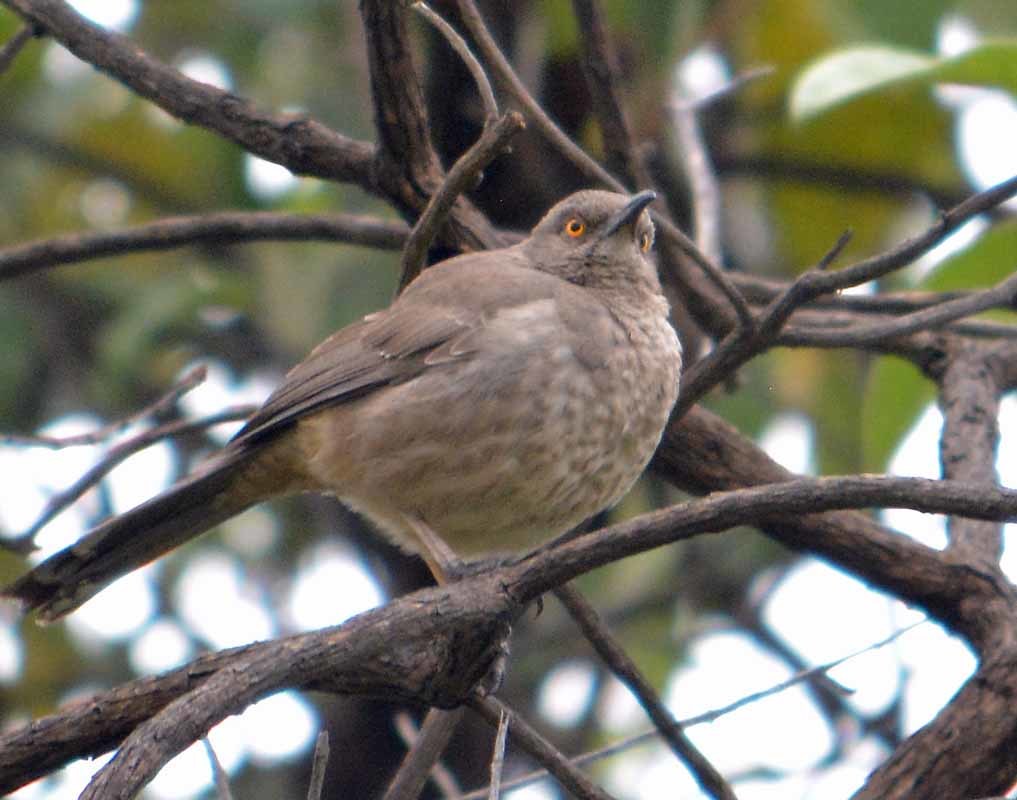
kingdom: Animalia
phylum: Chordata
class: Aves
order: Passeriformes
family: Mimidae
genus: Toxostoma
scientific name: Toxostoma curvirostre
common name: Curve-billed thrasher
